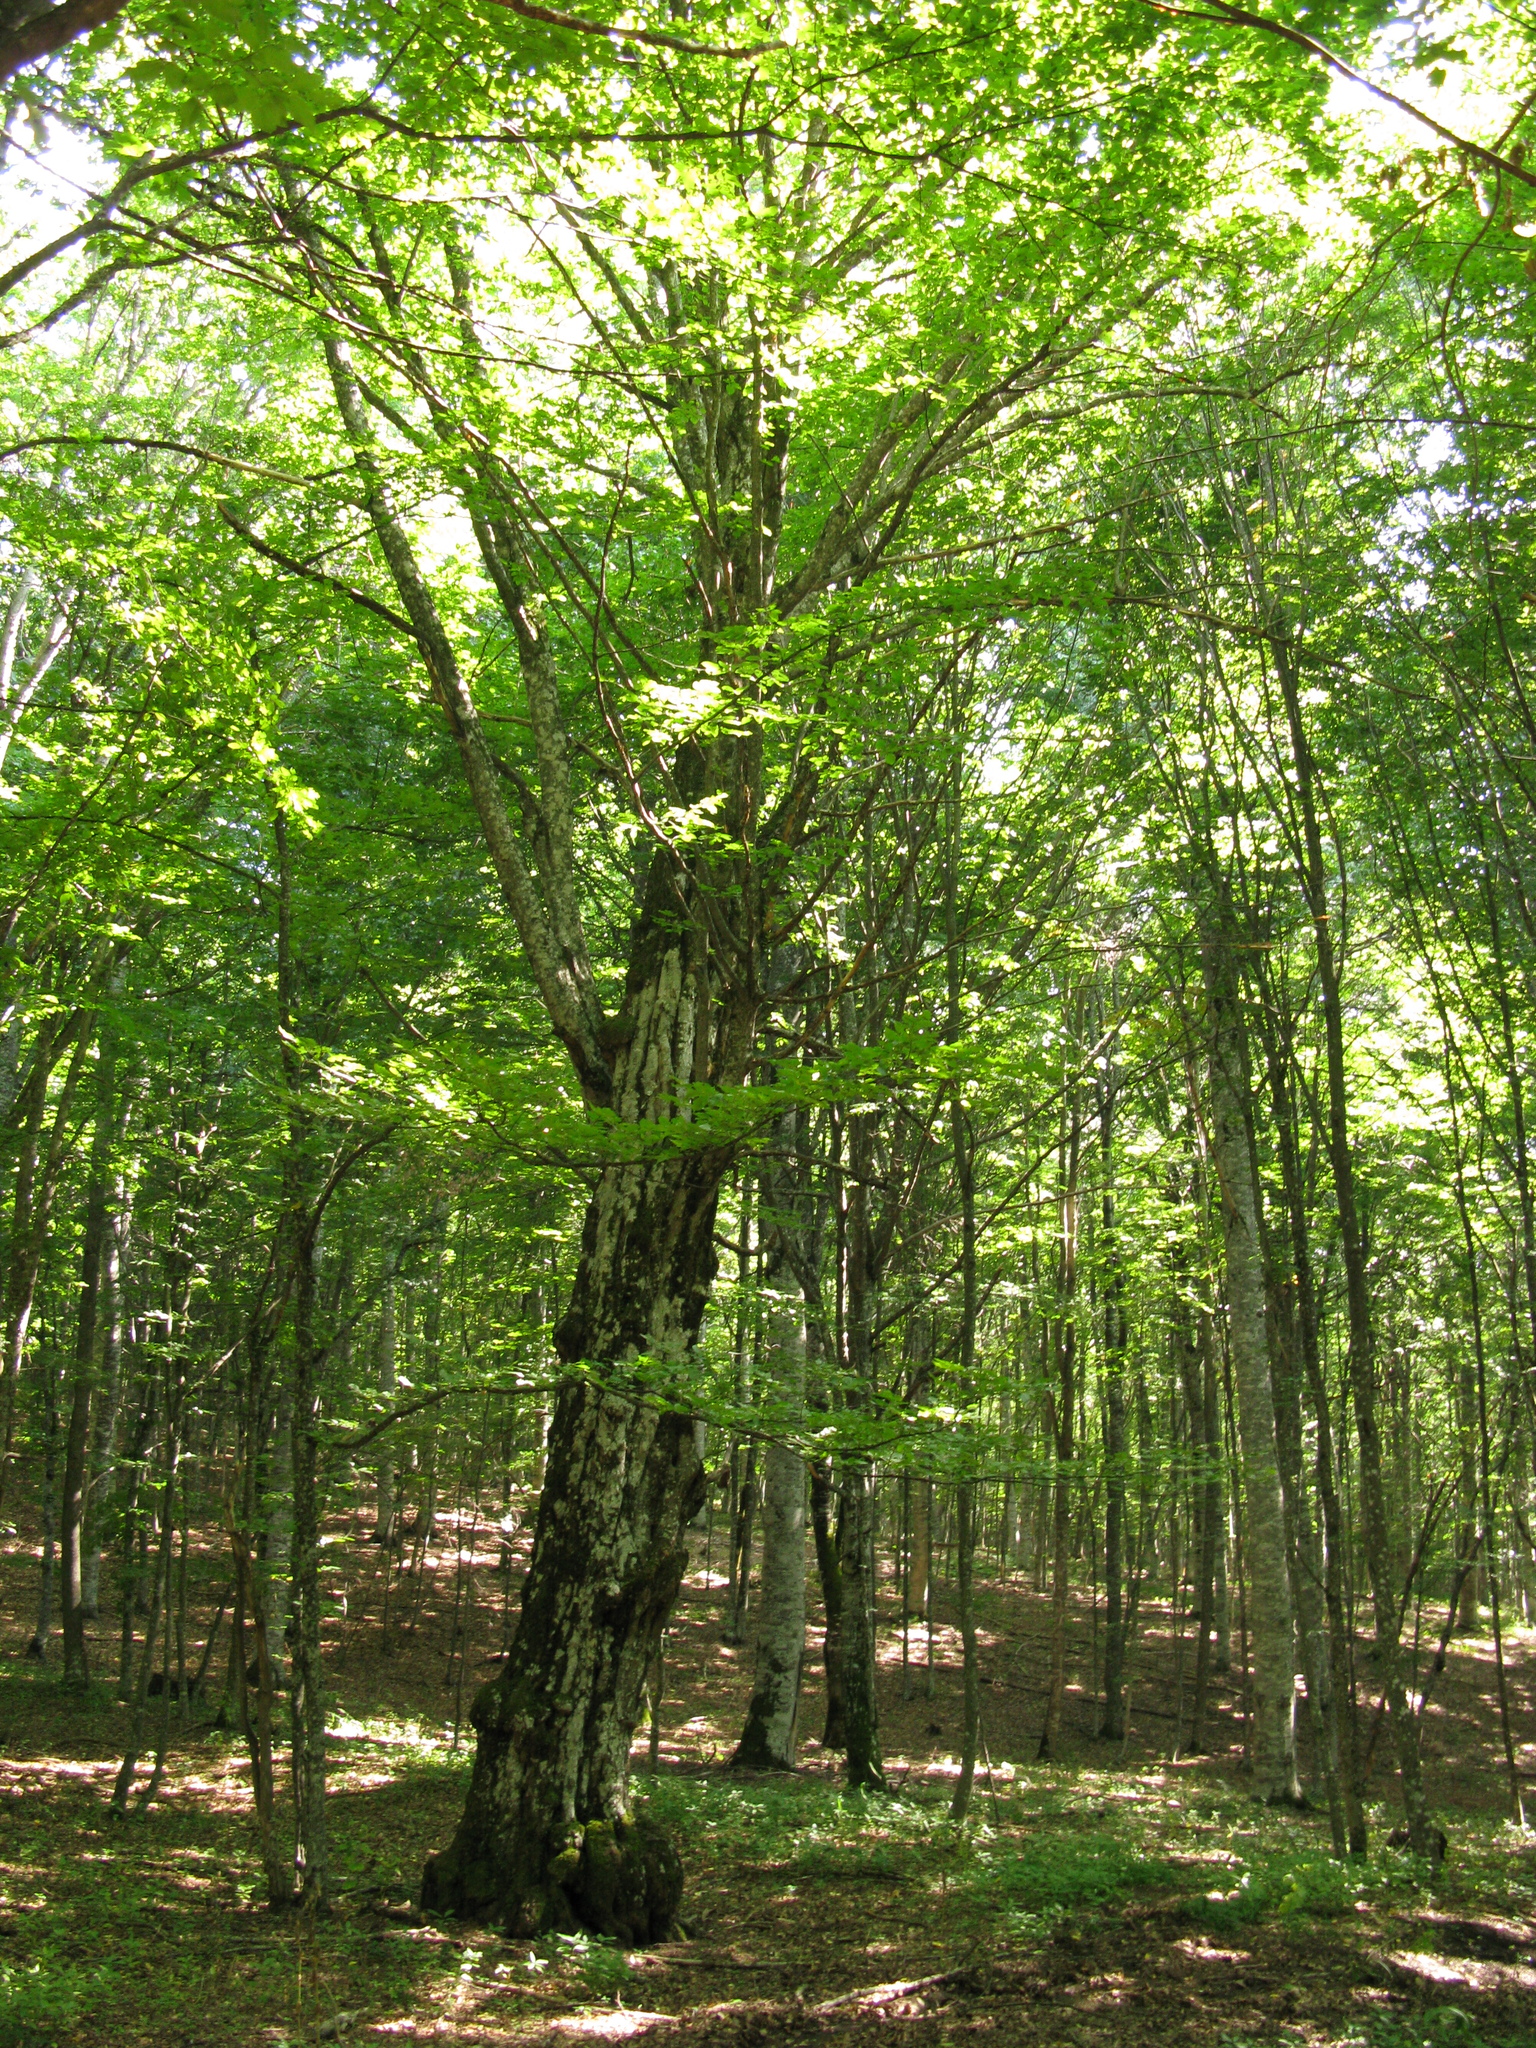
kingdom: Plantae
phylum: Tracheophyta
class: Magnoliopsida
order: Fagales
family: Fagaceae
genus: Fagus
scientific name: Fagus taurica
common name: Crimean beech
